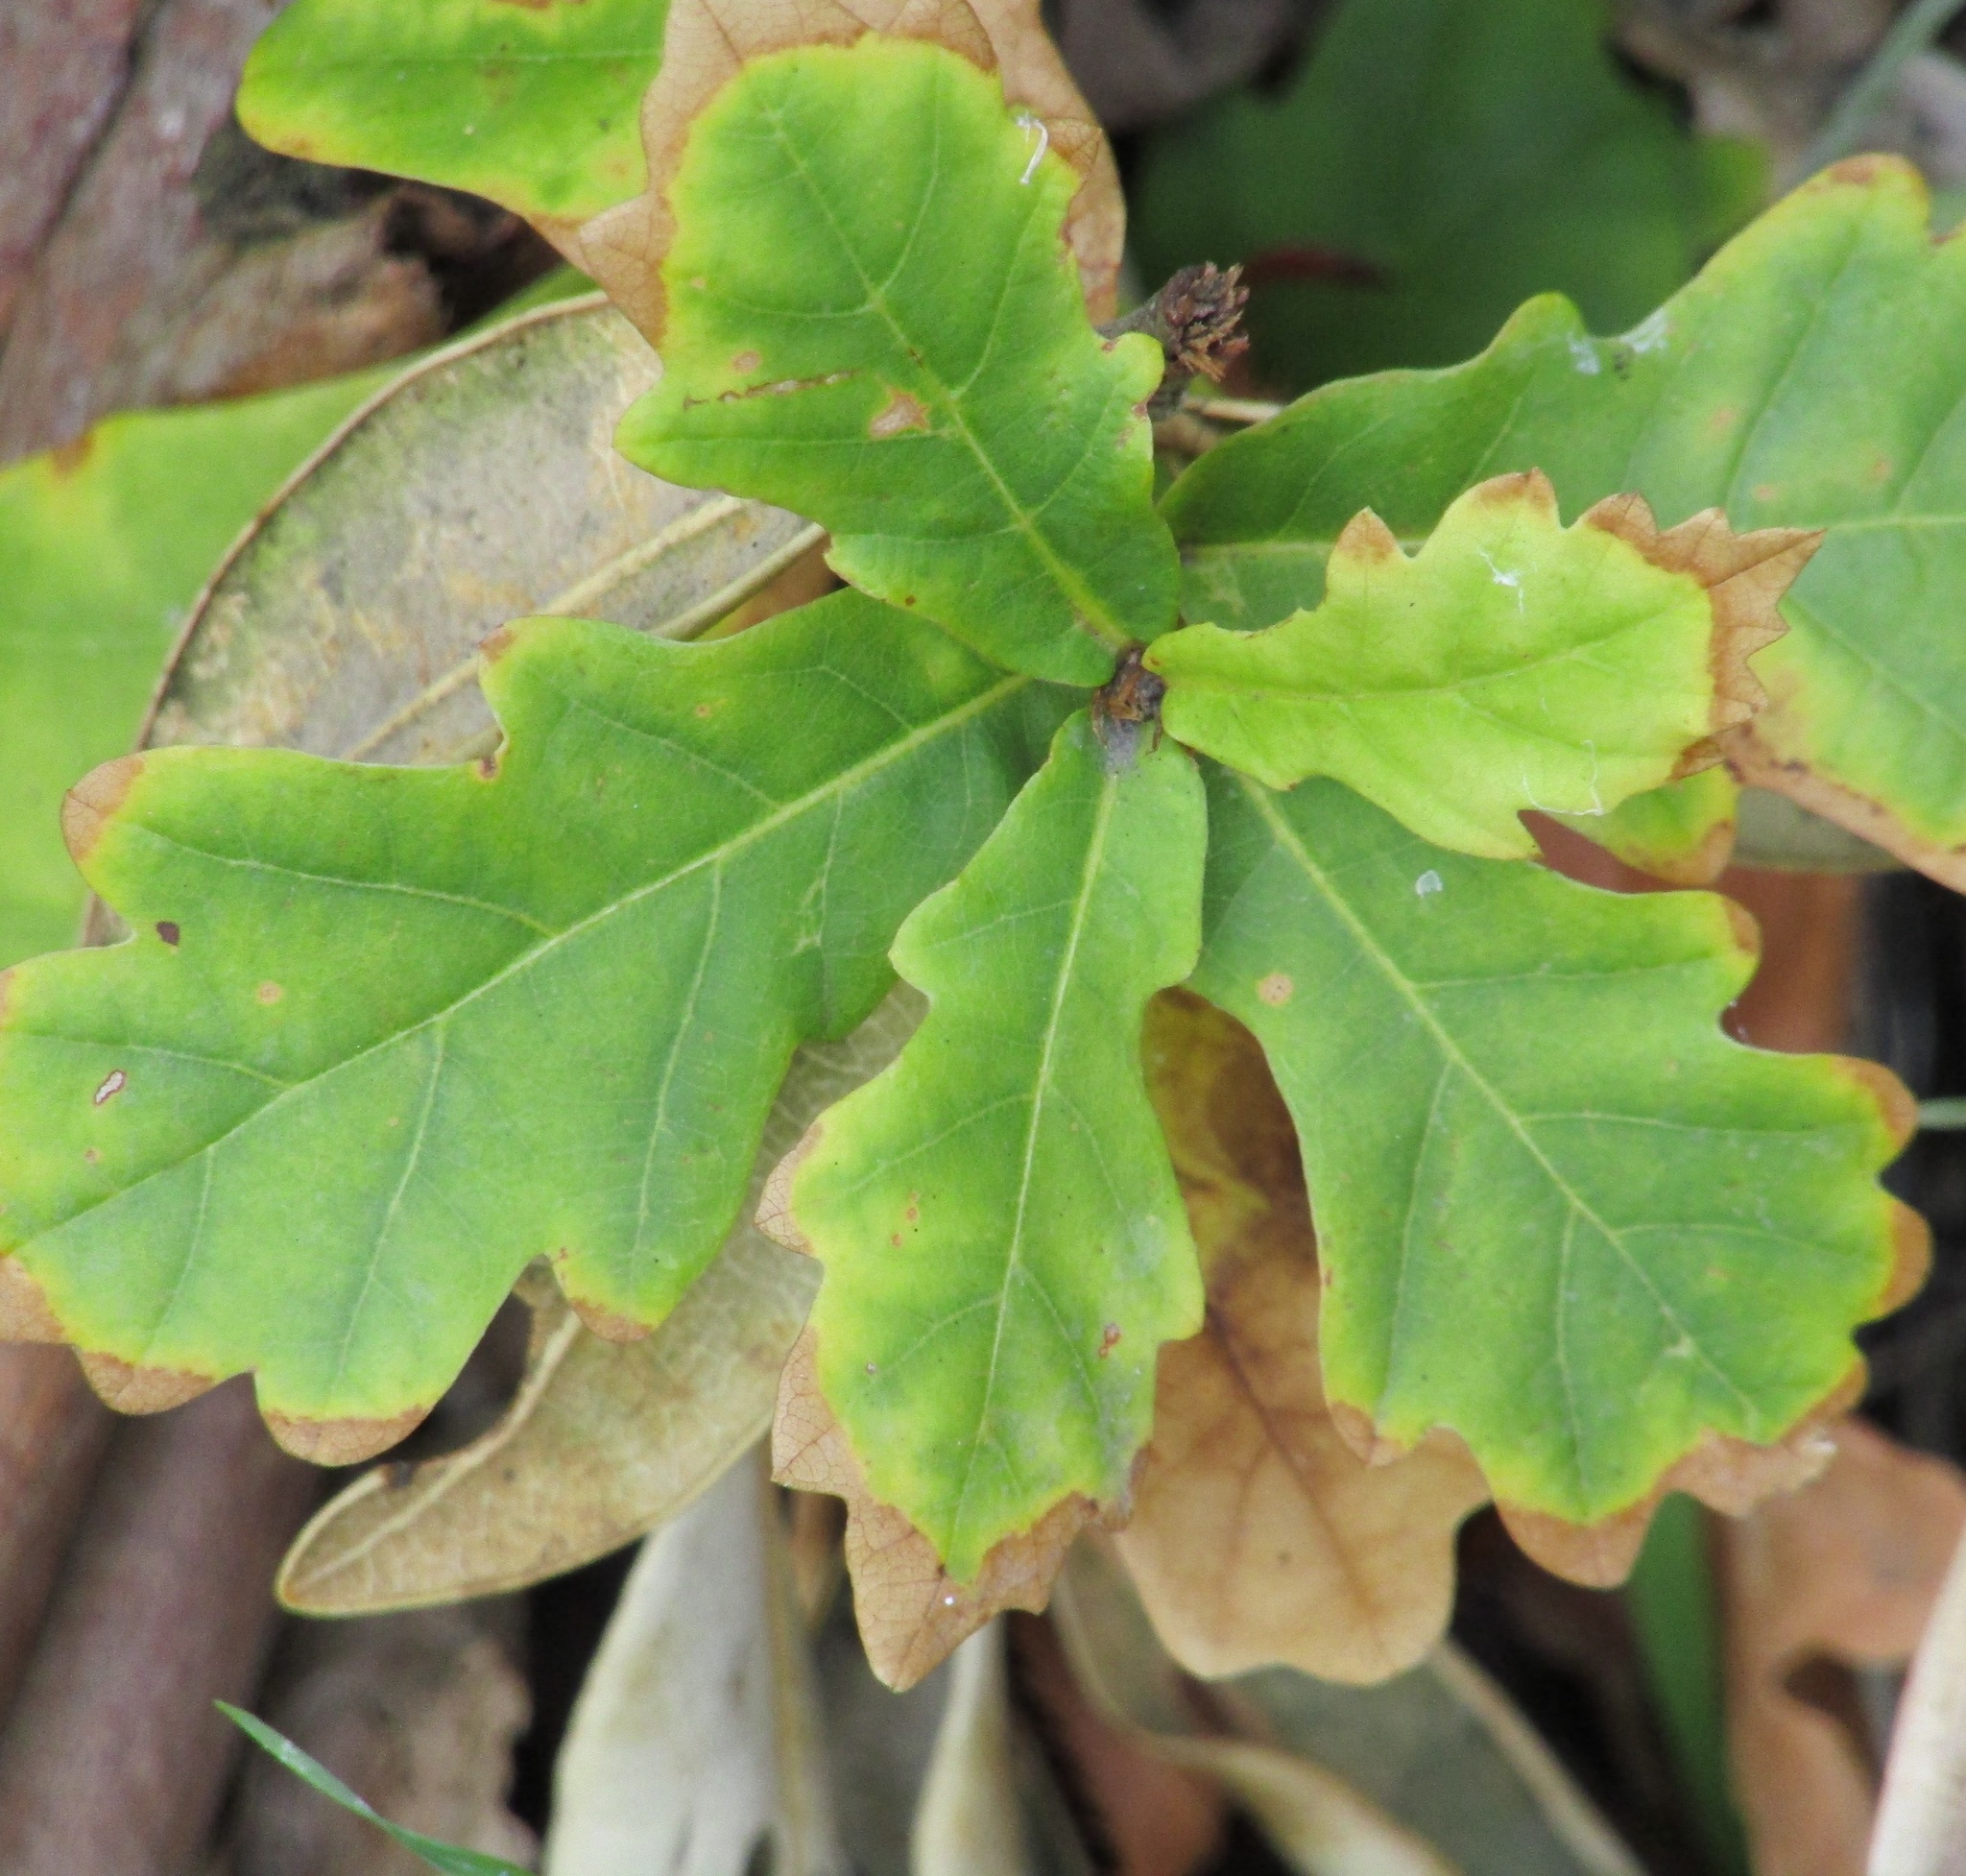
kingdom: Plantae
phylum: Tracheophyta
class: Magnoliopsida
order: Fagales
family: Fagaceae
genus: Quercus
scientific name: Quercus robur
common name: Pedunculate oak
